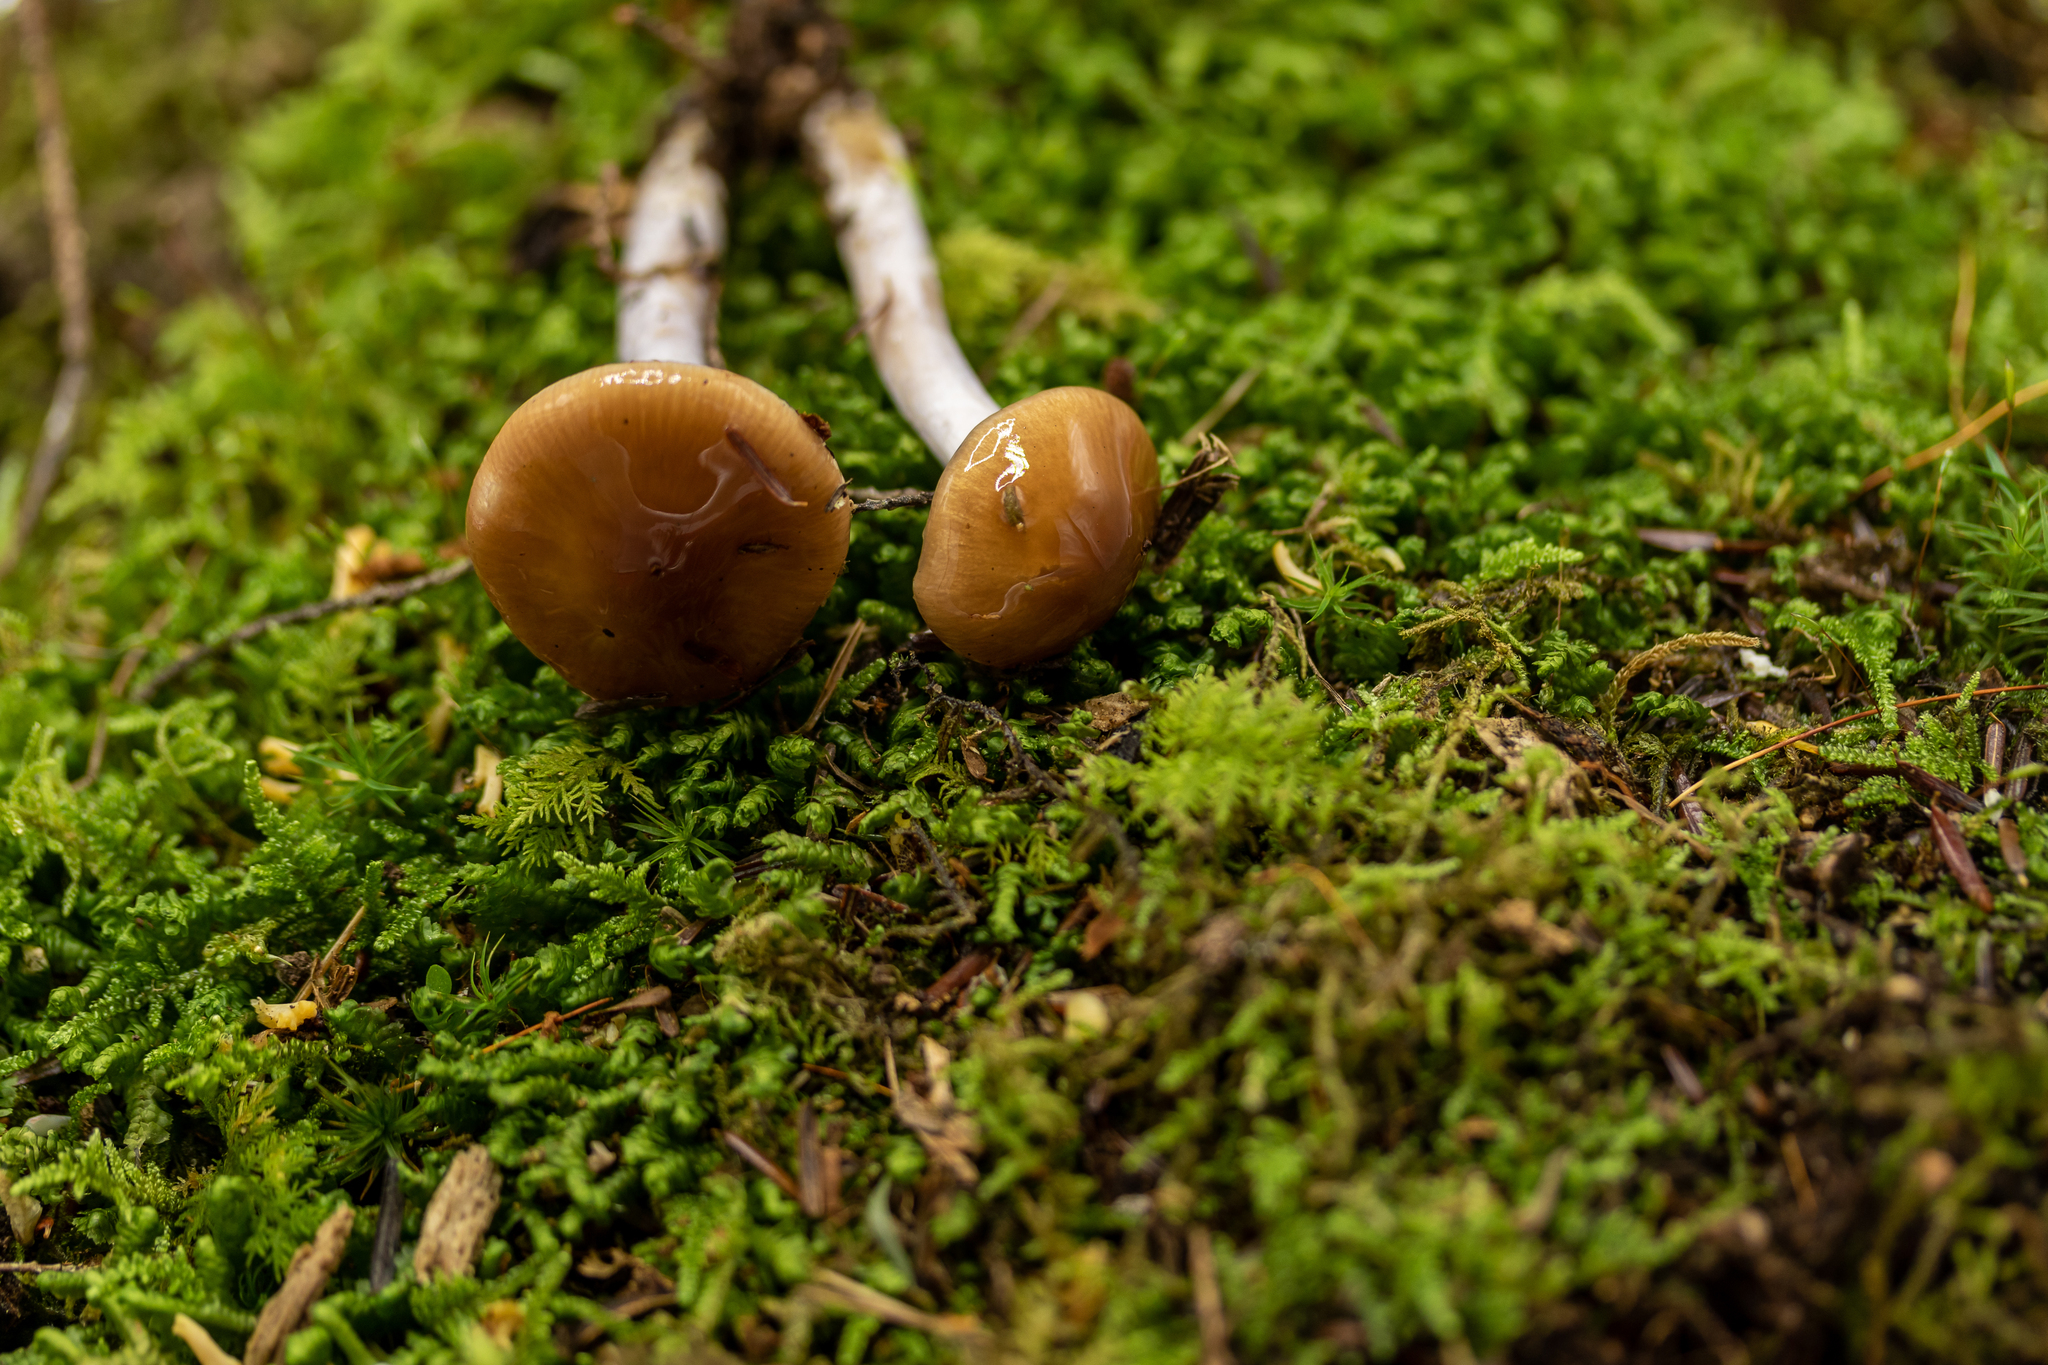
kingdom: Fungi
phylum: Basidiomycota
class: Agaricomycetes
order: Agaricales
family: Cortinariaceae
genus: Cortinarius
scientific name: Cortinarius stillatitius
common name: Purple stocking webcap
